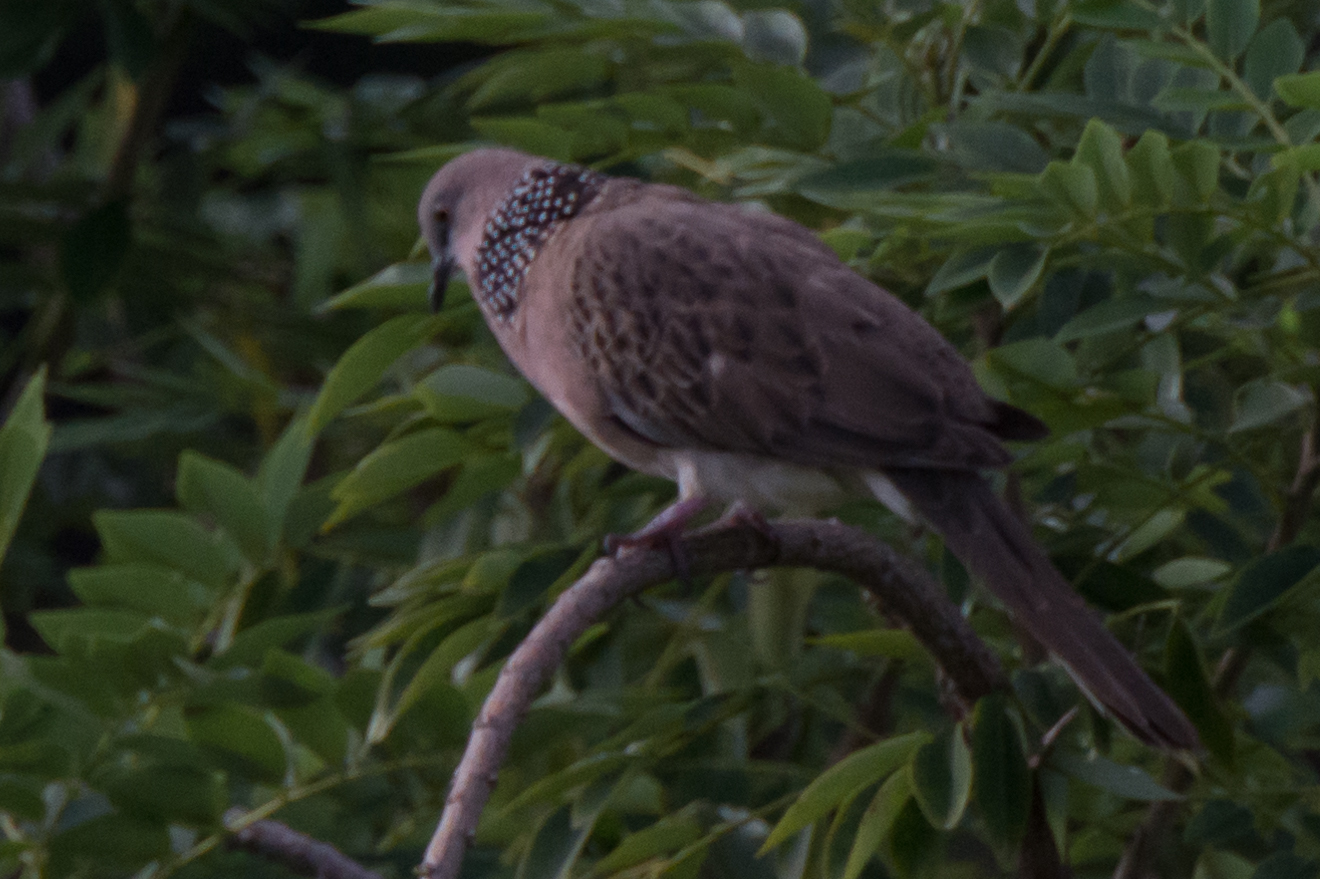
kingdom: Animalia
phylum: Chordata
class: Aves
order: Columbiformes
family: Columbidae
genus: Spilopelia
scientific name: Spilopelia chinensis
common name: Spotted dove
